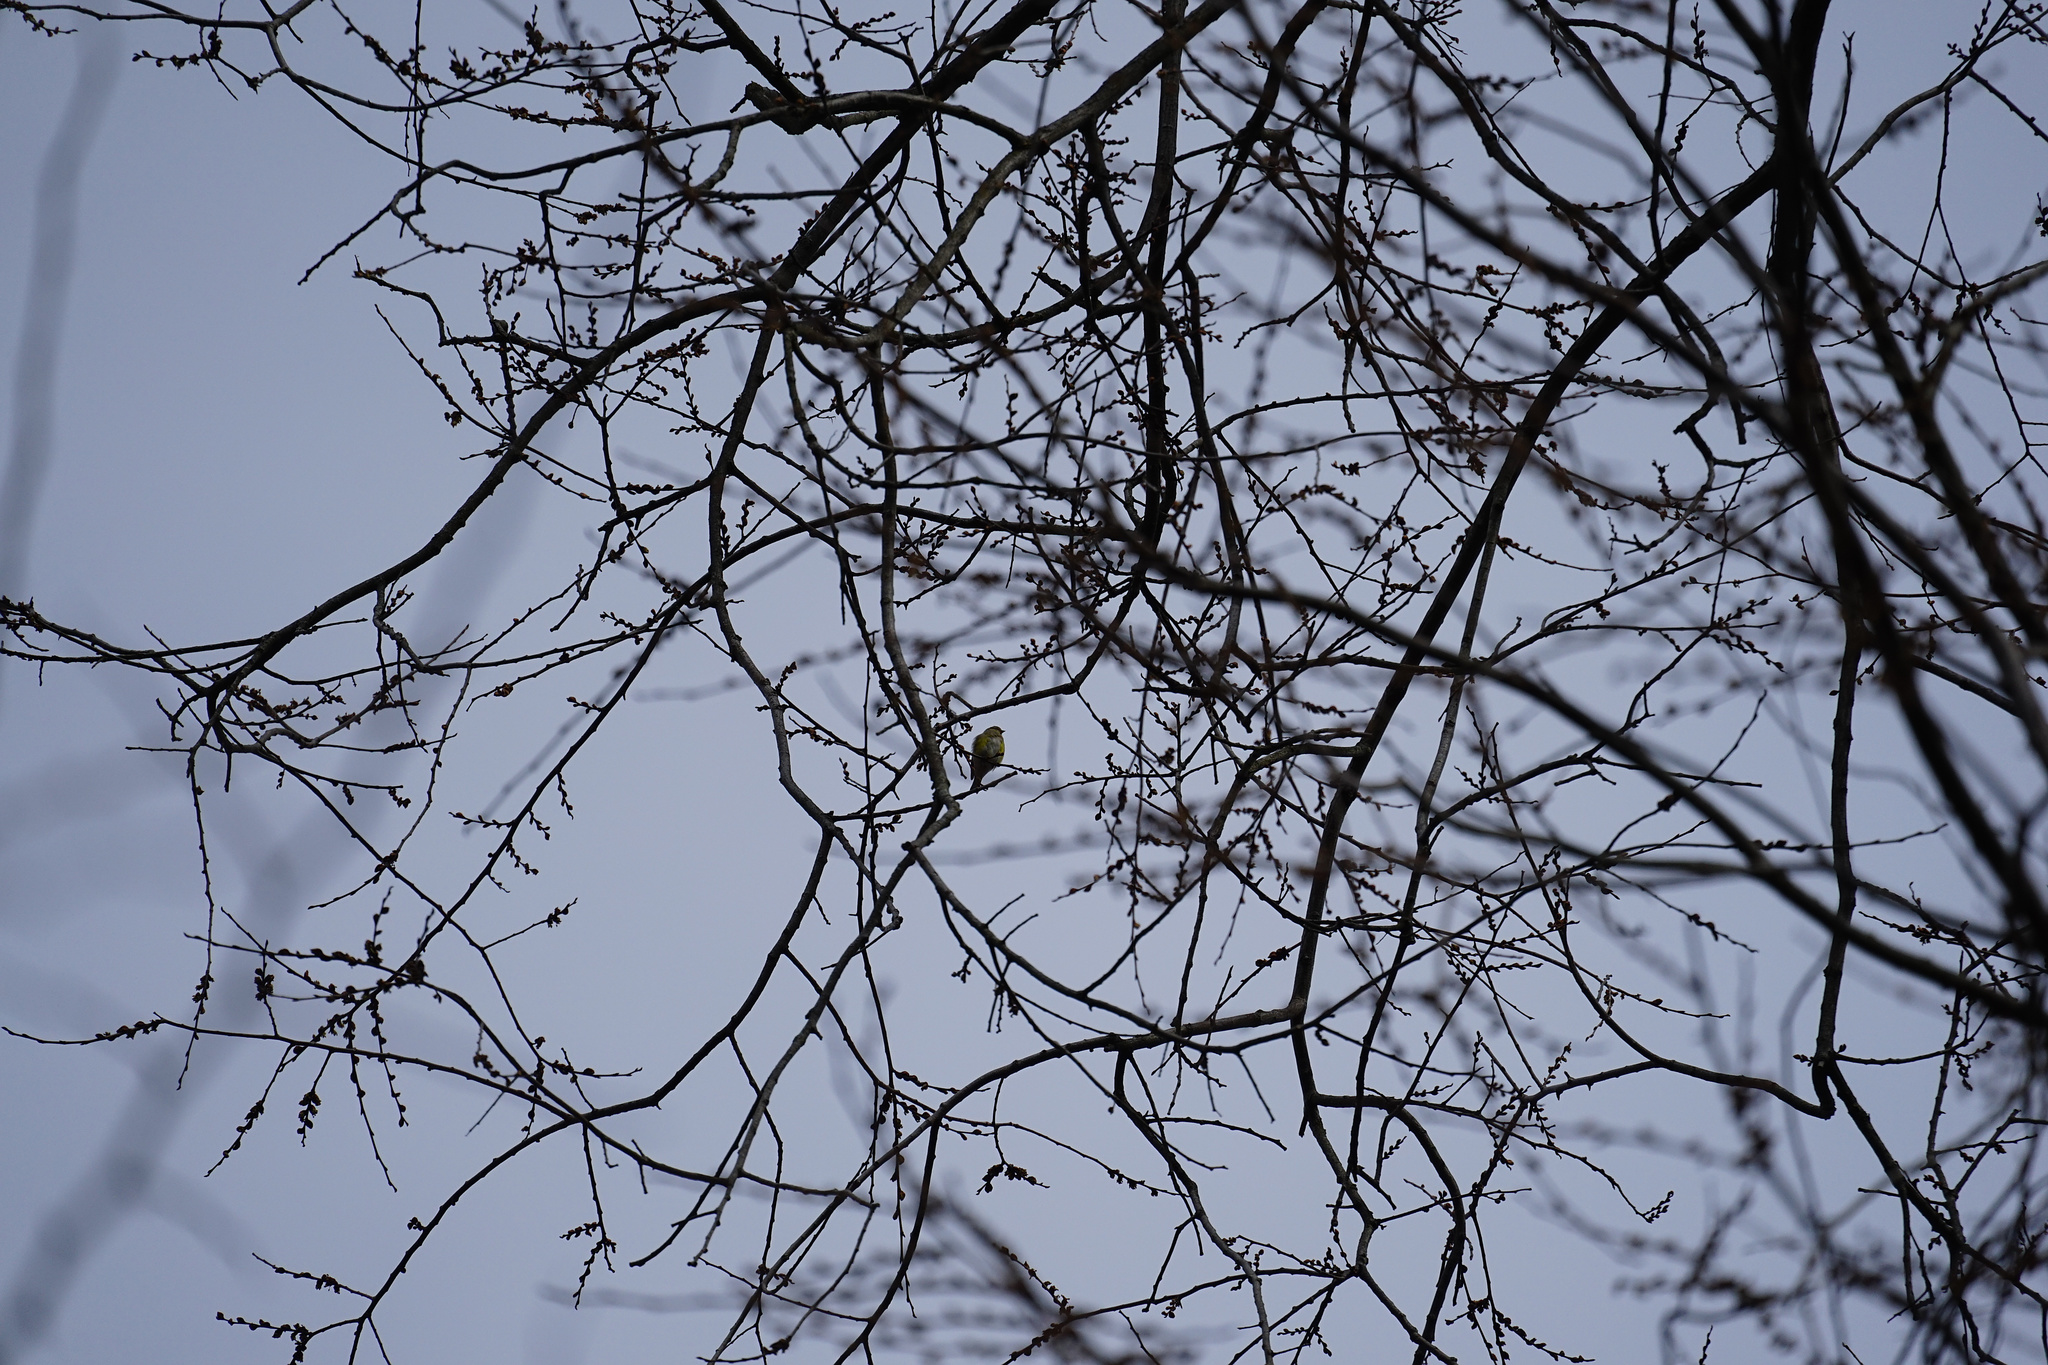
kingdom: Animalia
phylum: Chordata
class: Aves
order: Passeriformes
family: Fringillidae
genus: Spinus
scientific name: Spinus tristis
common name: American goldfinch
